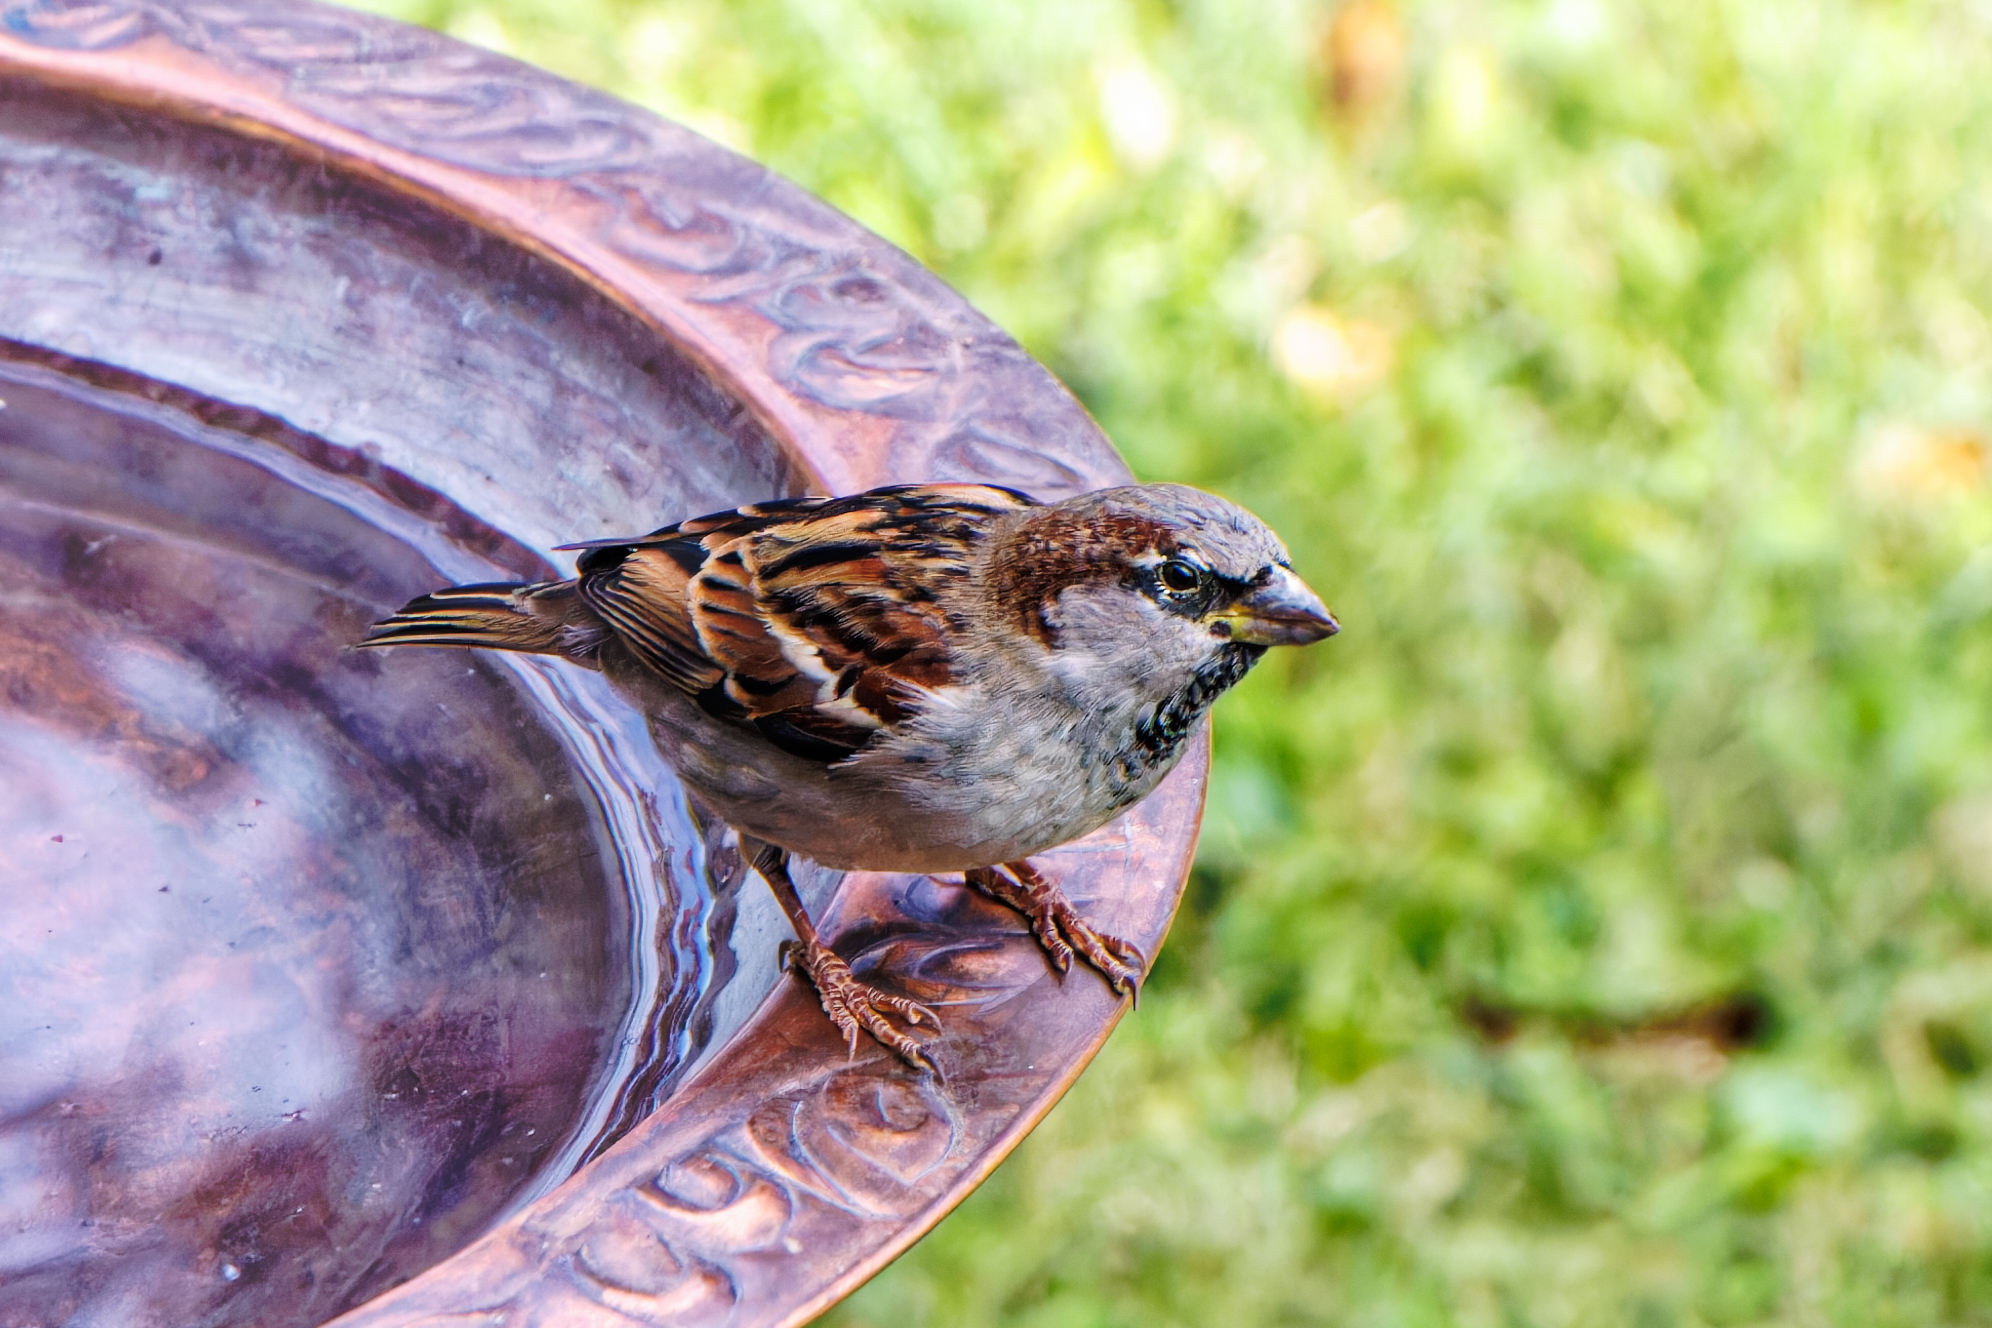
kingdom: Animalia
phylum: Chordata
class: Aves
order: Passeriformes
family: Passeridae
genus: Passer
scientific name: Passer domesticus
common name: House sparrow
